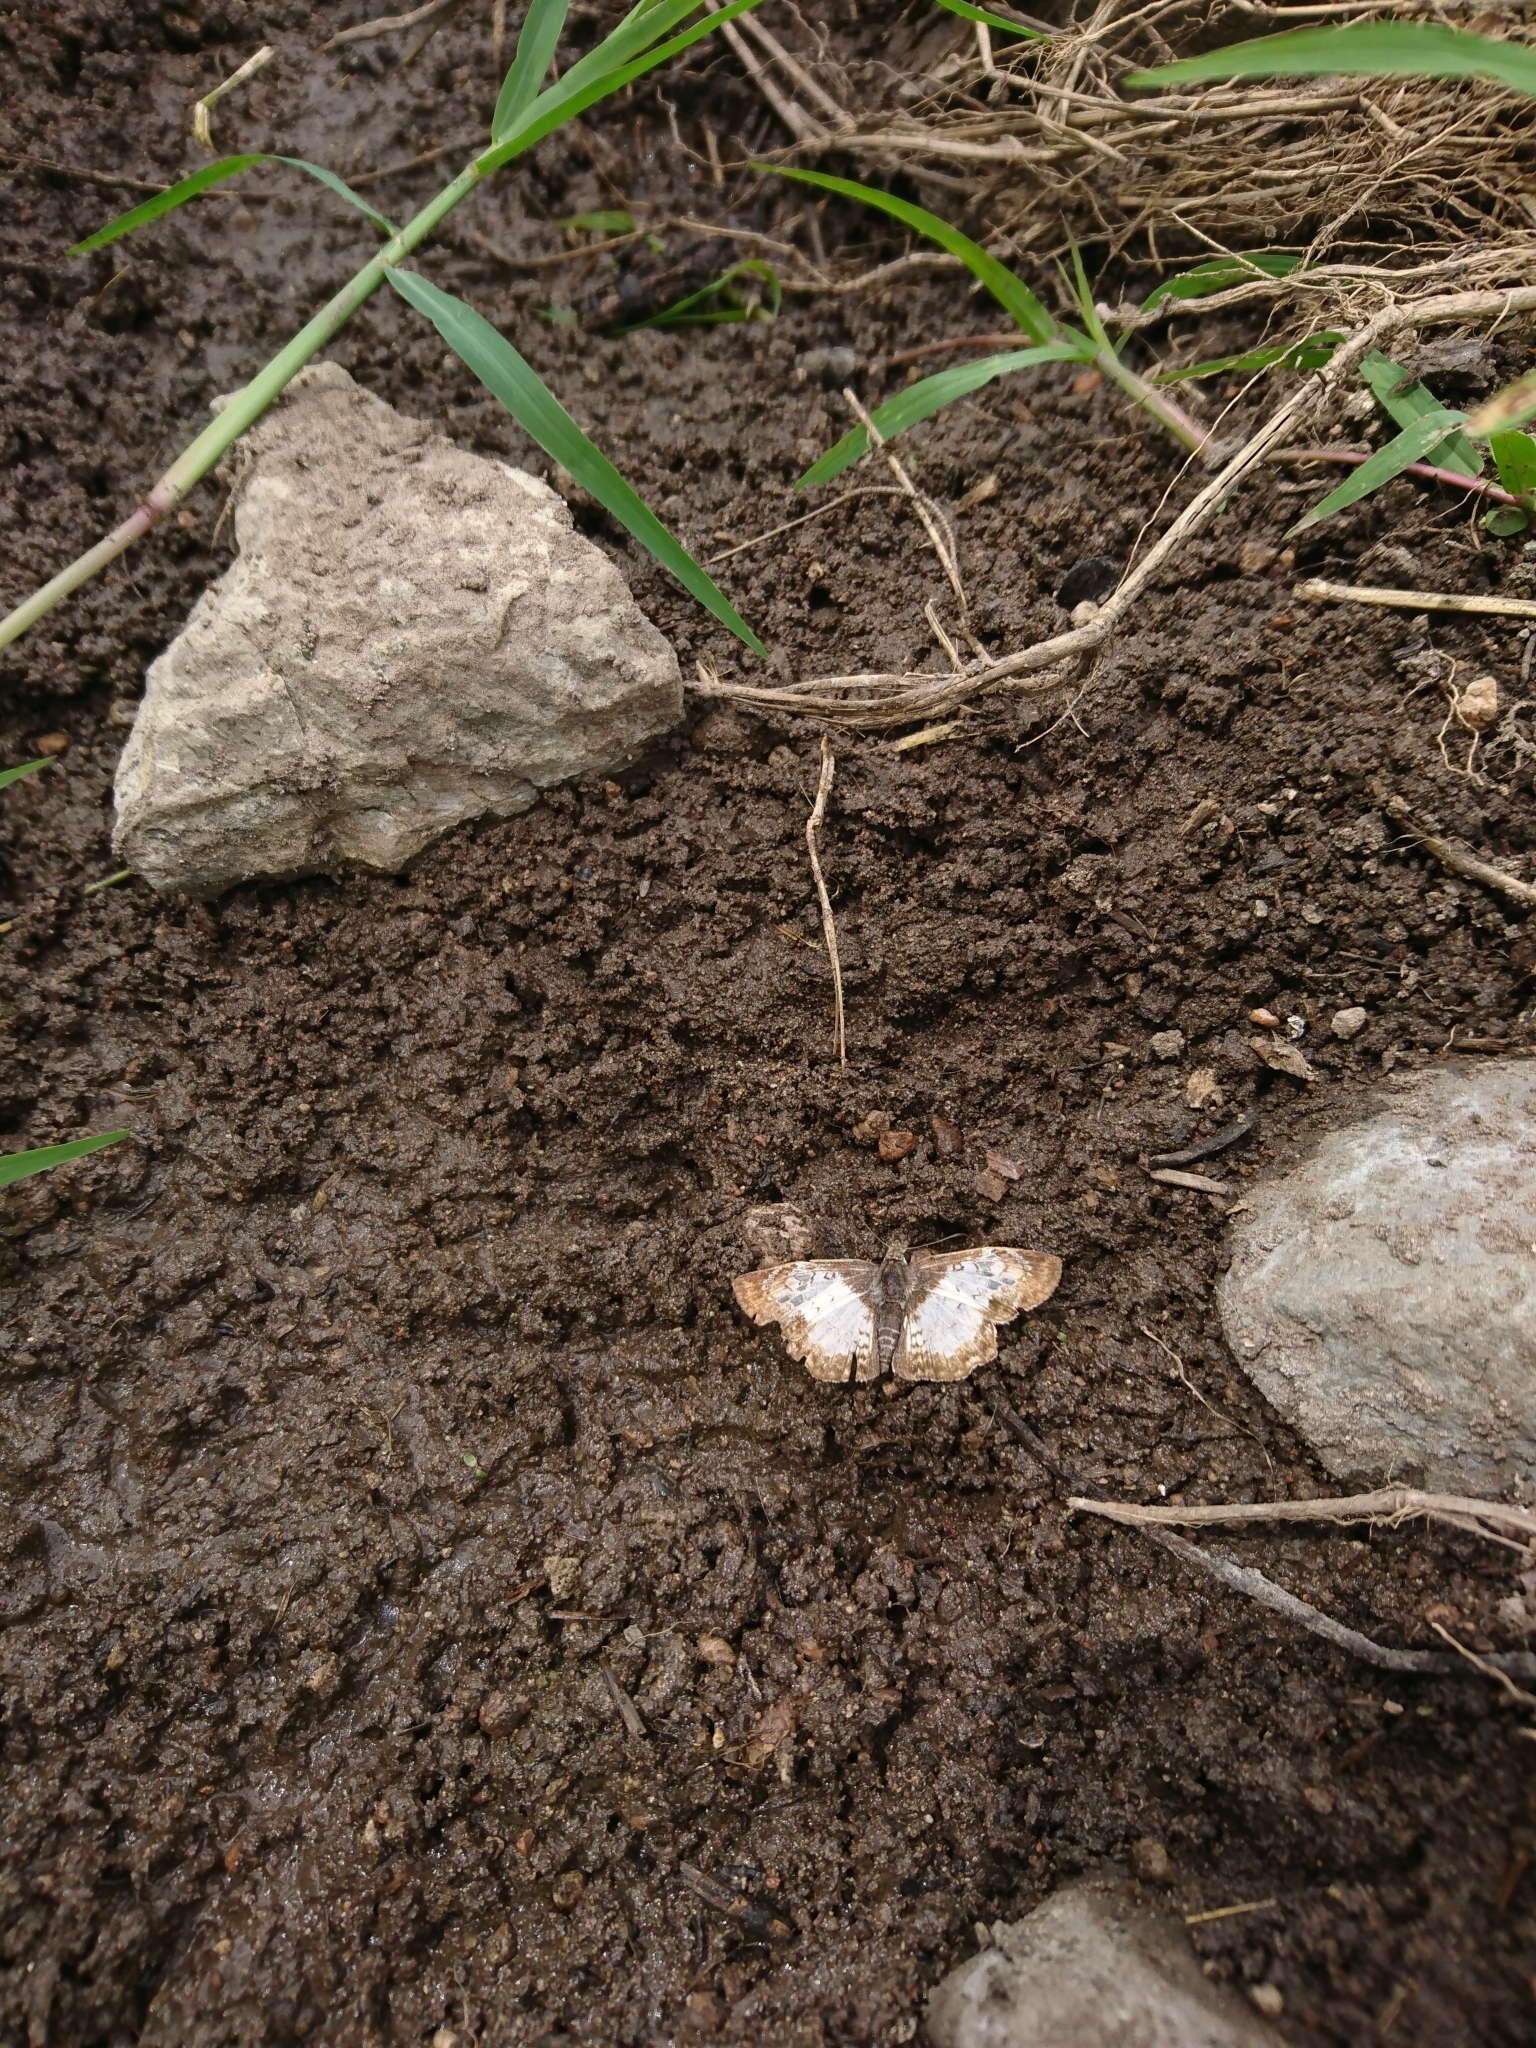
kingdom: Animalia
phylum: Arthropoda
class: Insecta
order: Lepidoptera
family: Hesperiidae
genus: Antigonus
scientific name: Antigonus emorsa
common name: White spurwing
